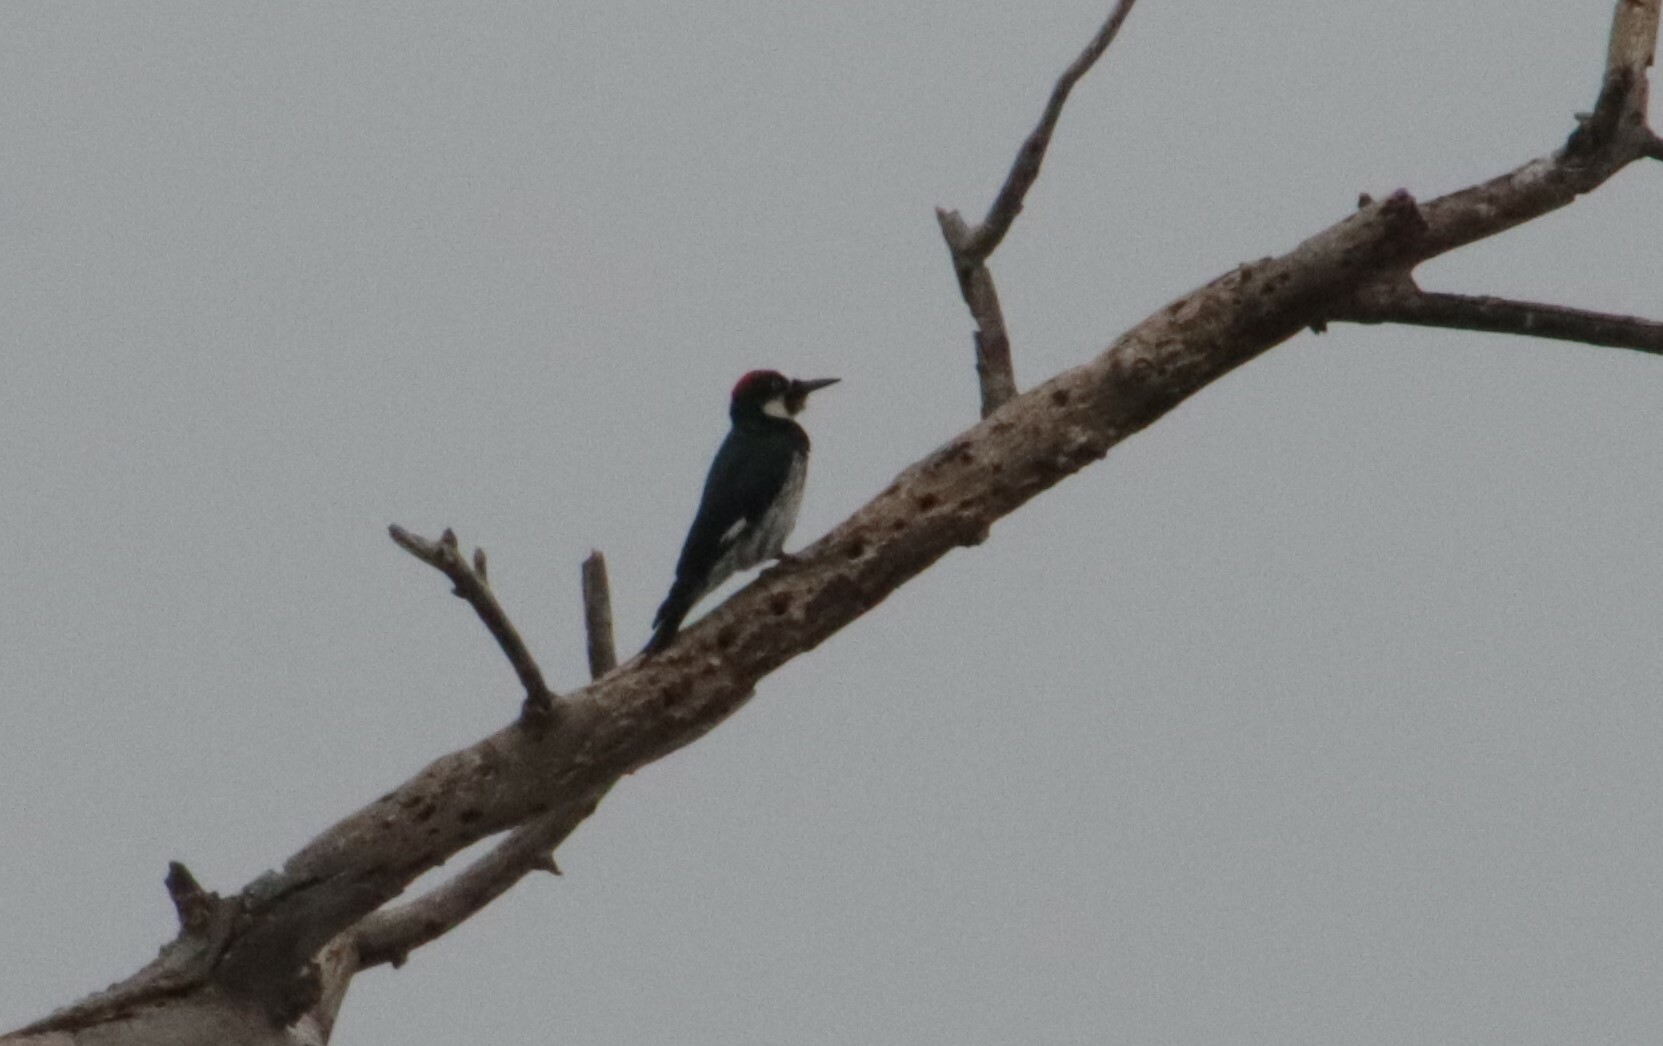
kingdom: Animalia
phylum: Chordata
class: Aves
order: Piciformes
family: Picidae
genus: Melanerpes
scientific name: Melanerpes formicivorus
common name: Acorn woodpecker
